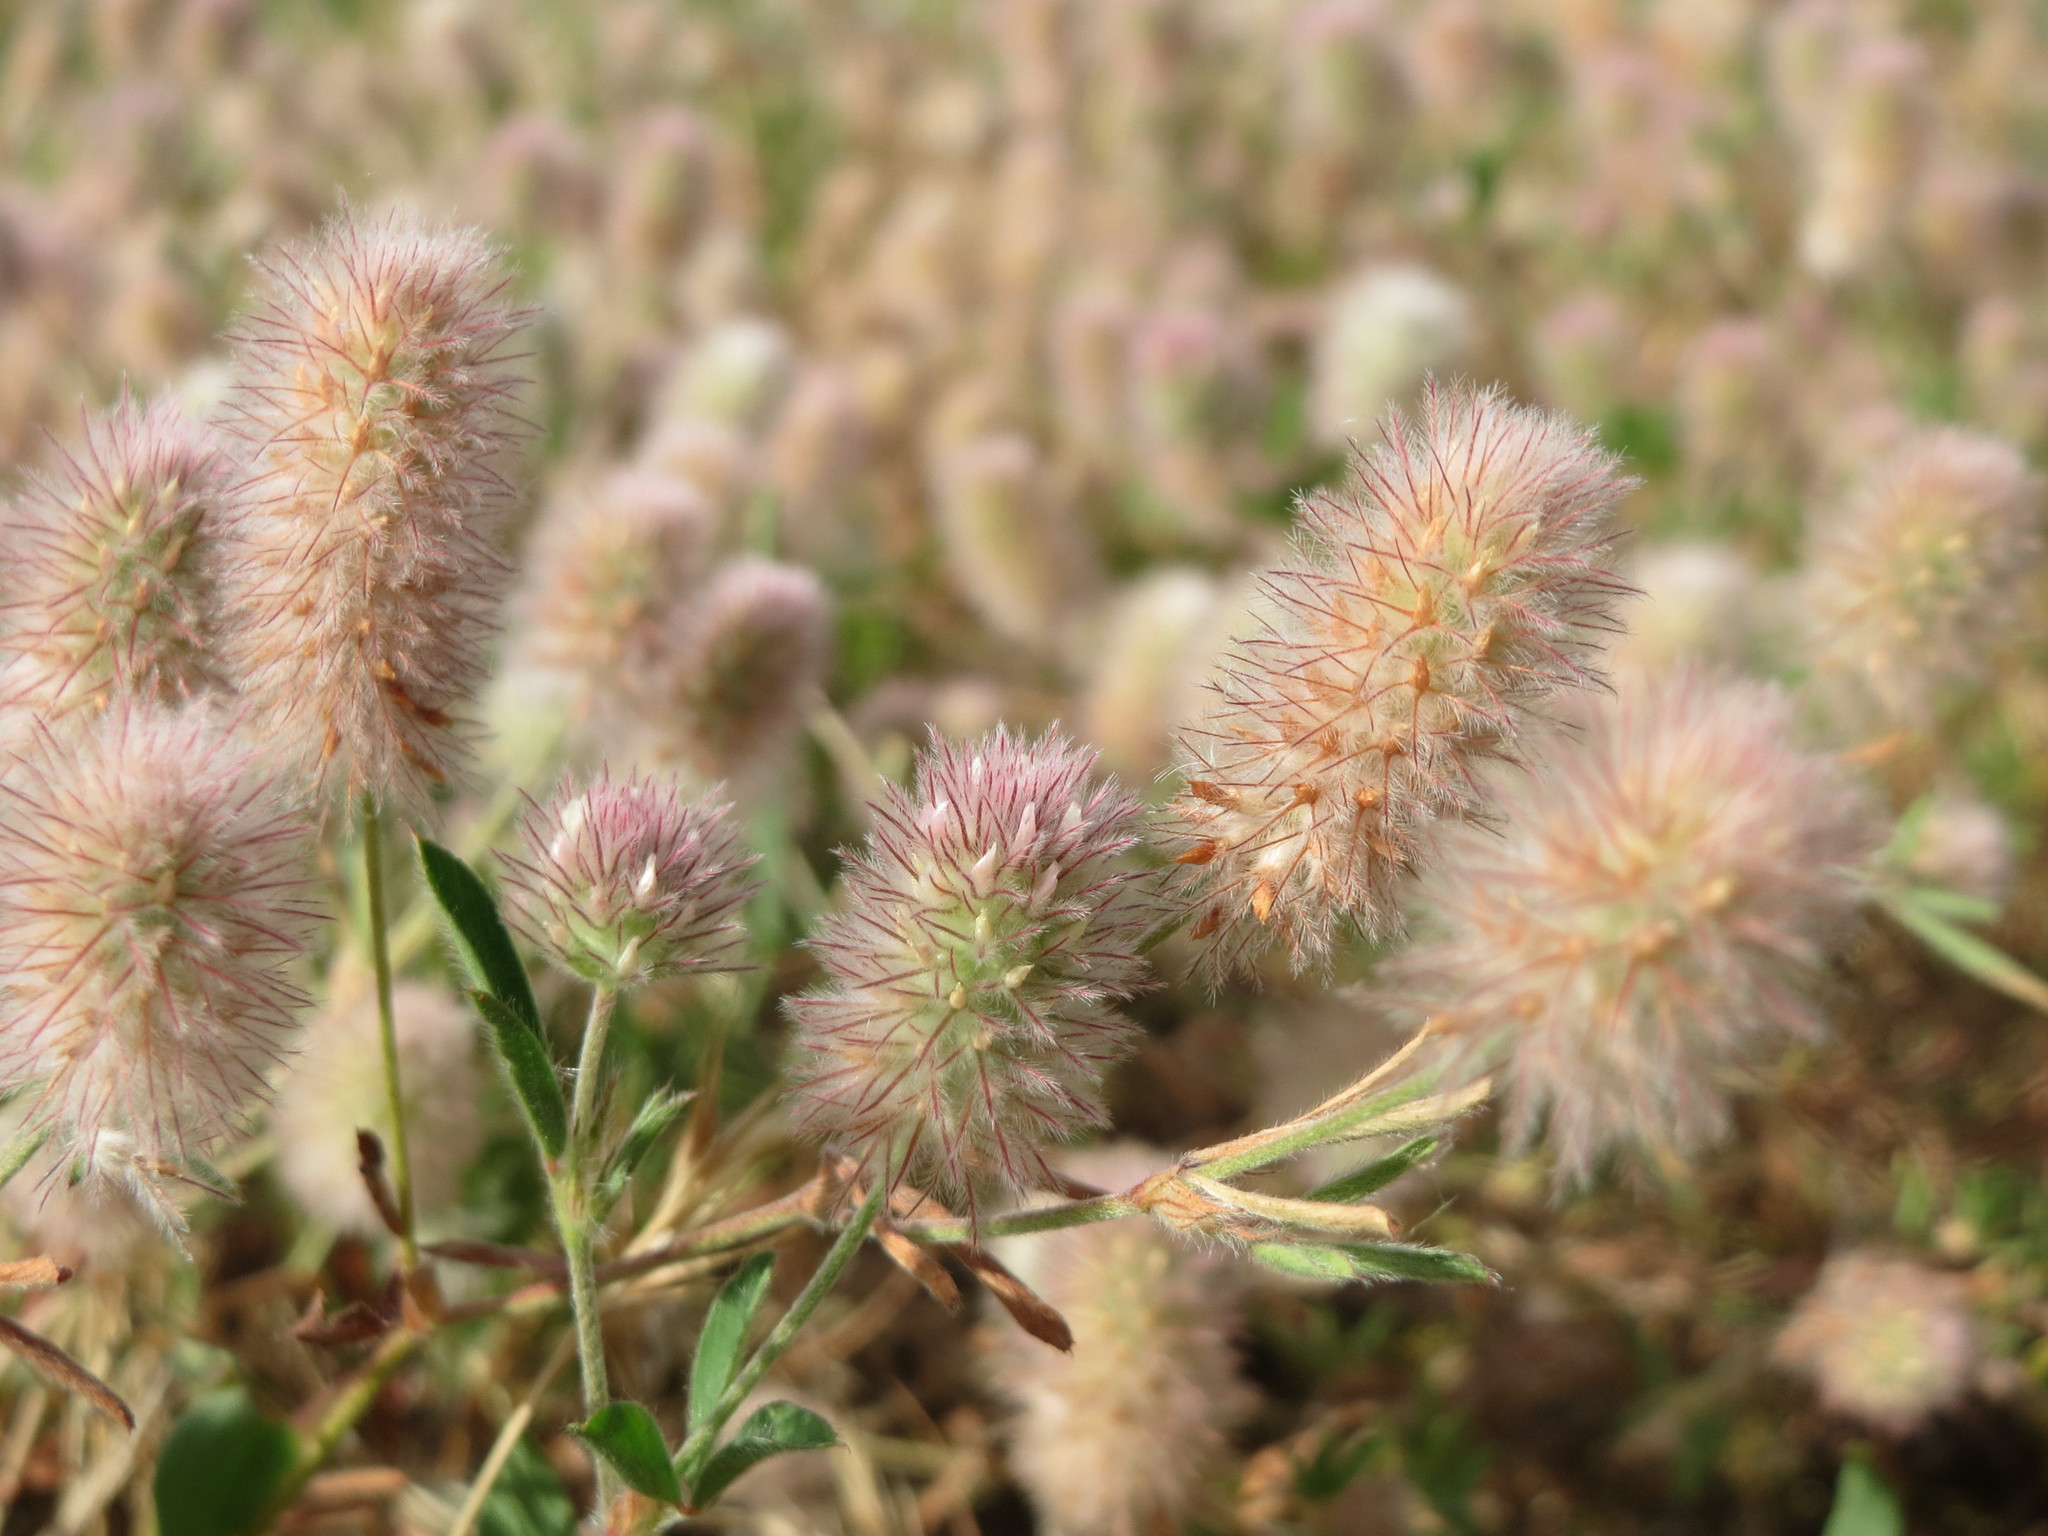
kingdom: Plantae
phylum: Tracheophyta
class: Magnoliopsida
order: Fabales
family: Fabaceae
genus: Trifolium
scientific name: Trifolium arvense
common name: Hare's-foot clover
